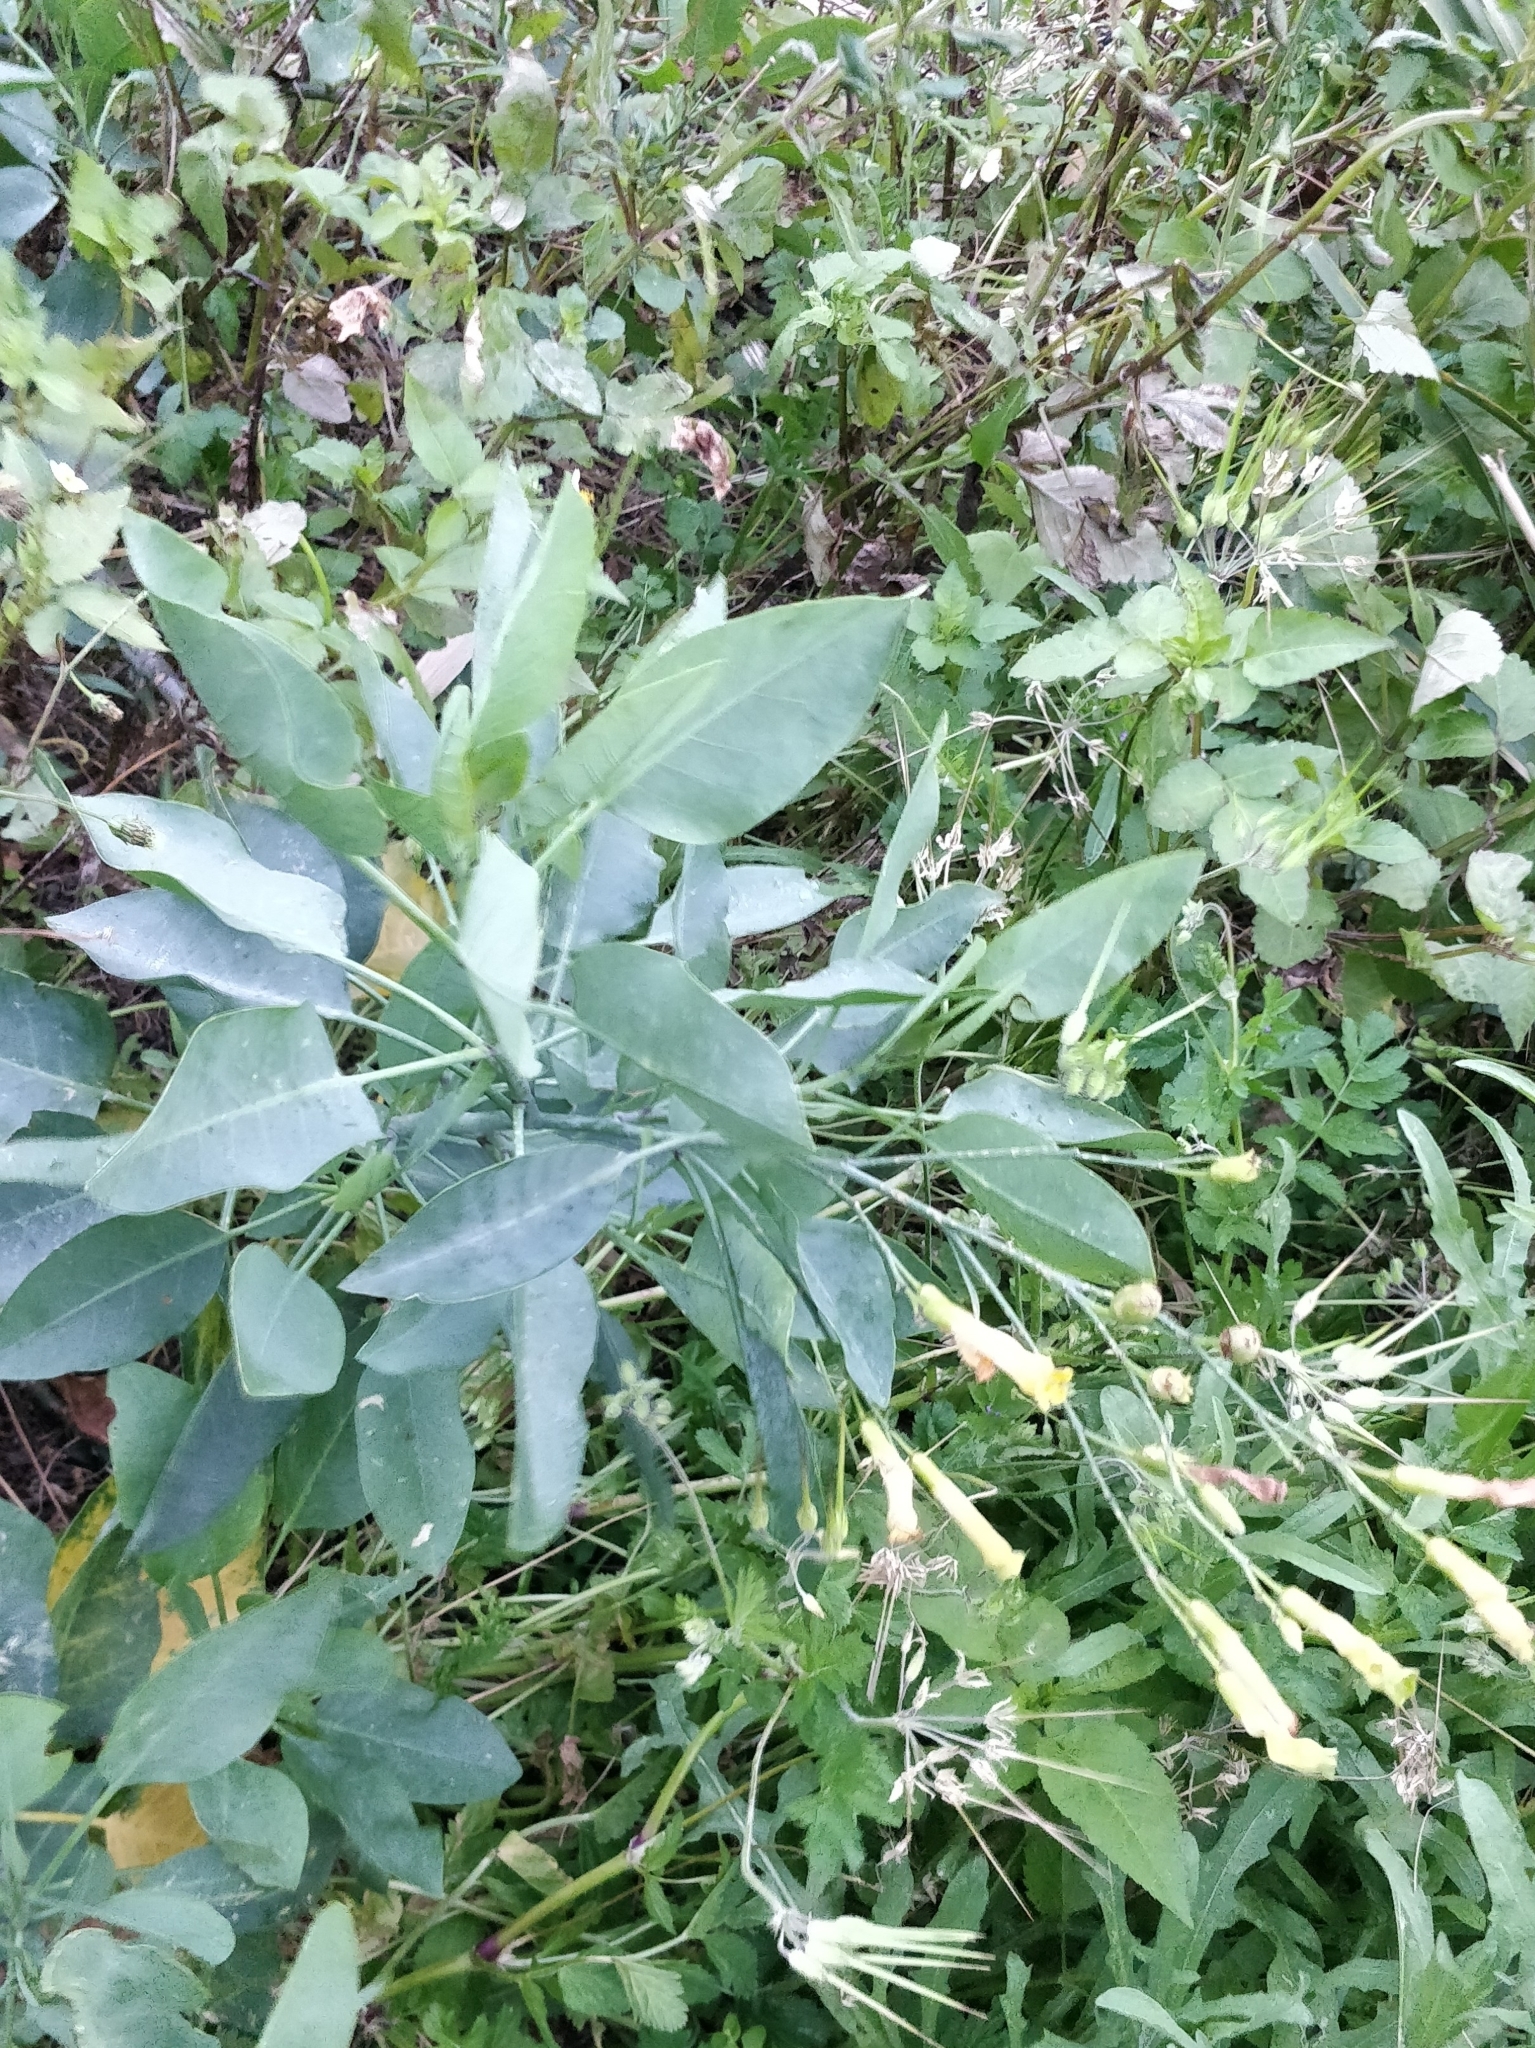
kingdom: Plantae
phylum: Tracheophyta
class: Magnoliopsida
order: Solanales
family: Solanaceae
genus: Nicotiana
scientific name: Nicotiana glauca
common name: Tree tobacco
